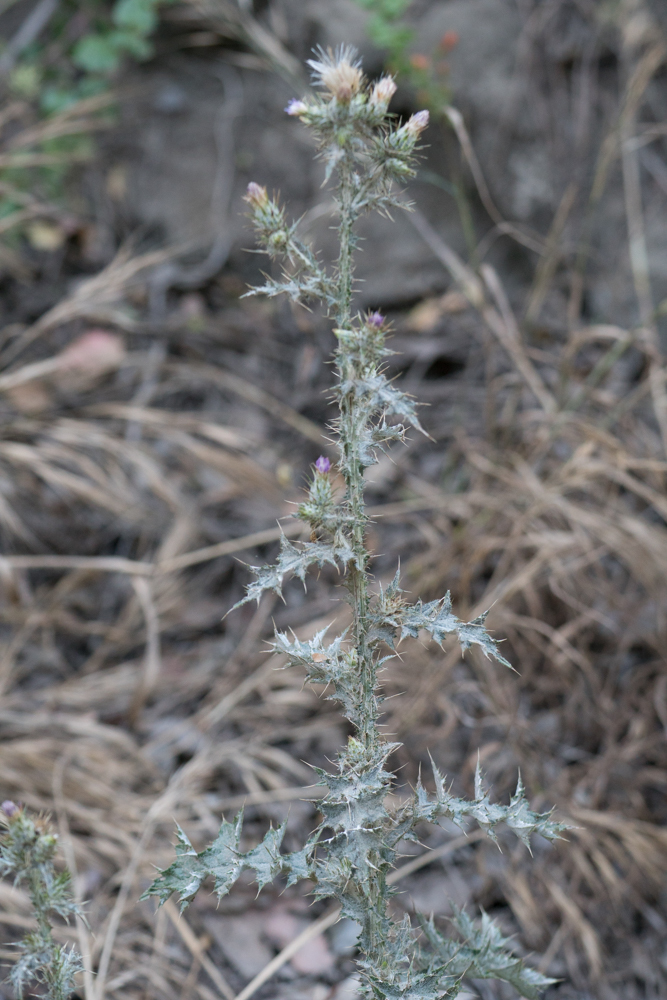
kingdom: Plantae
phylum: Tracheophyta
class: Magnoliopsida
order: Asterales
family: Asteraceae
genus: Carduus
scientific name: Carduus pycnocephalus
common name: Plymouth thistle
